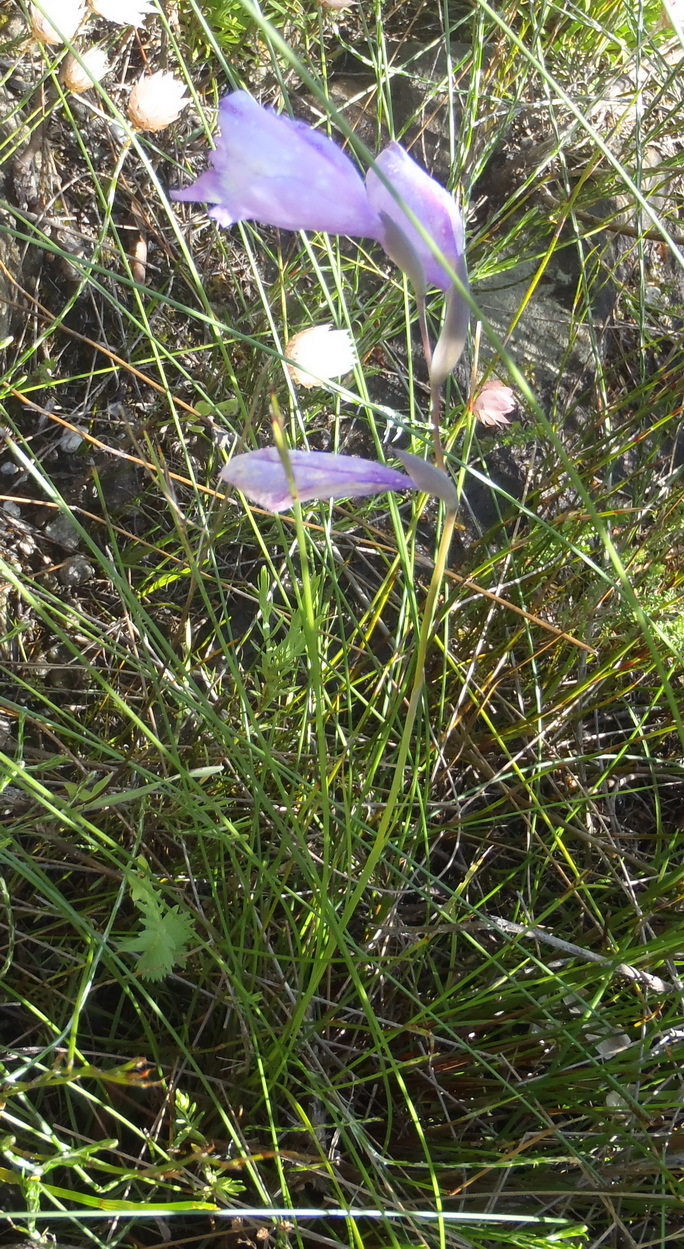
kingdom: Plantae
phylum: Tracheophyta
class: Liliopsida
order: Asparagales
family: Iridaceae
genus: Gladiolus
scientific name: Gladiolus rogersii
